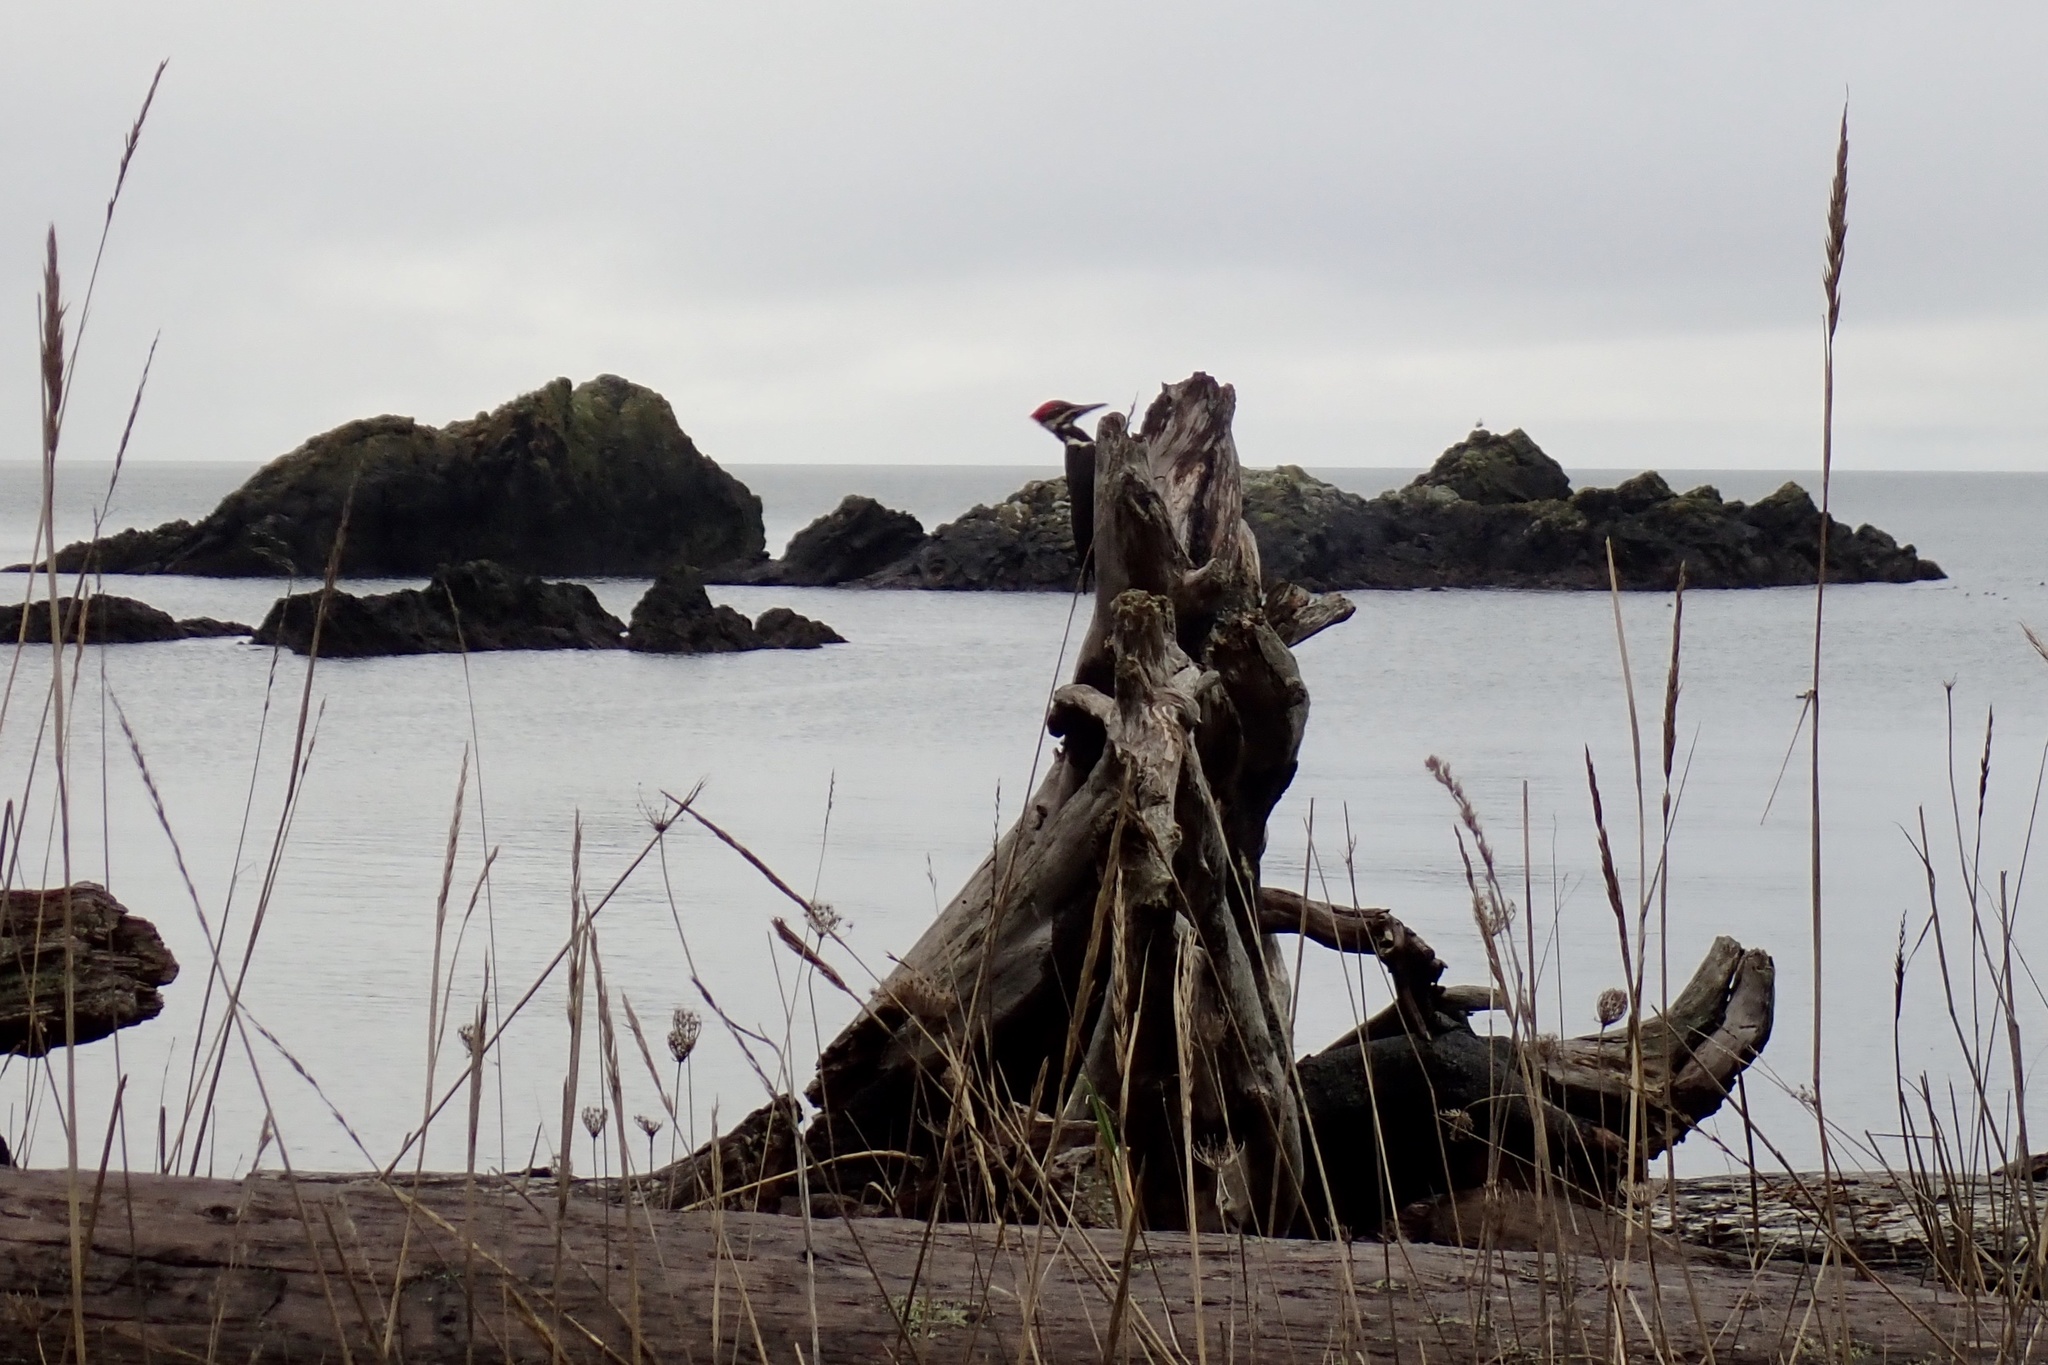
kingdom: Animalia
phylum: Chordata
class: Aves
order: Piciformes
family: Picidae
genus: Dryocopus
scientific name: Dryocopus pileatus
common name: Pileated woodpecker
